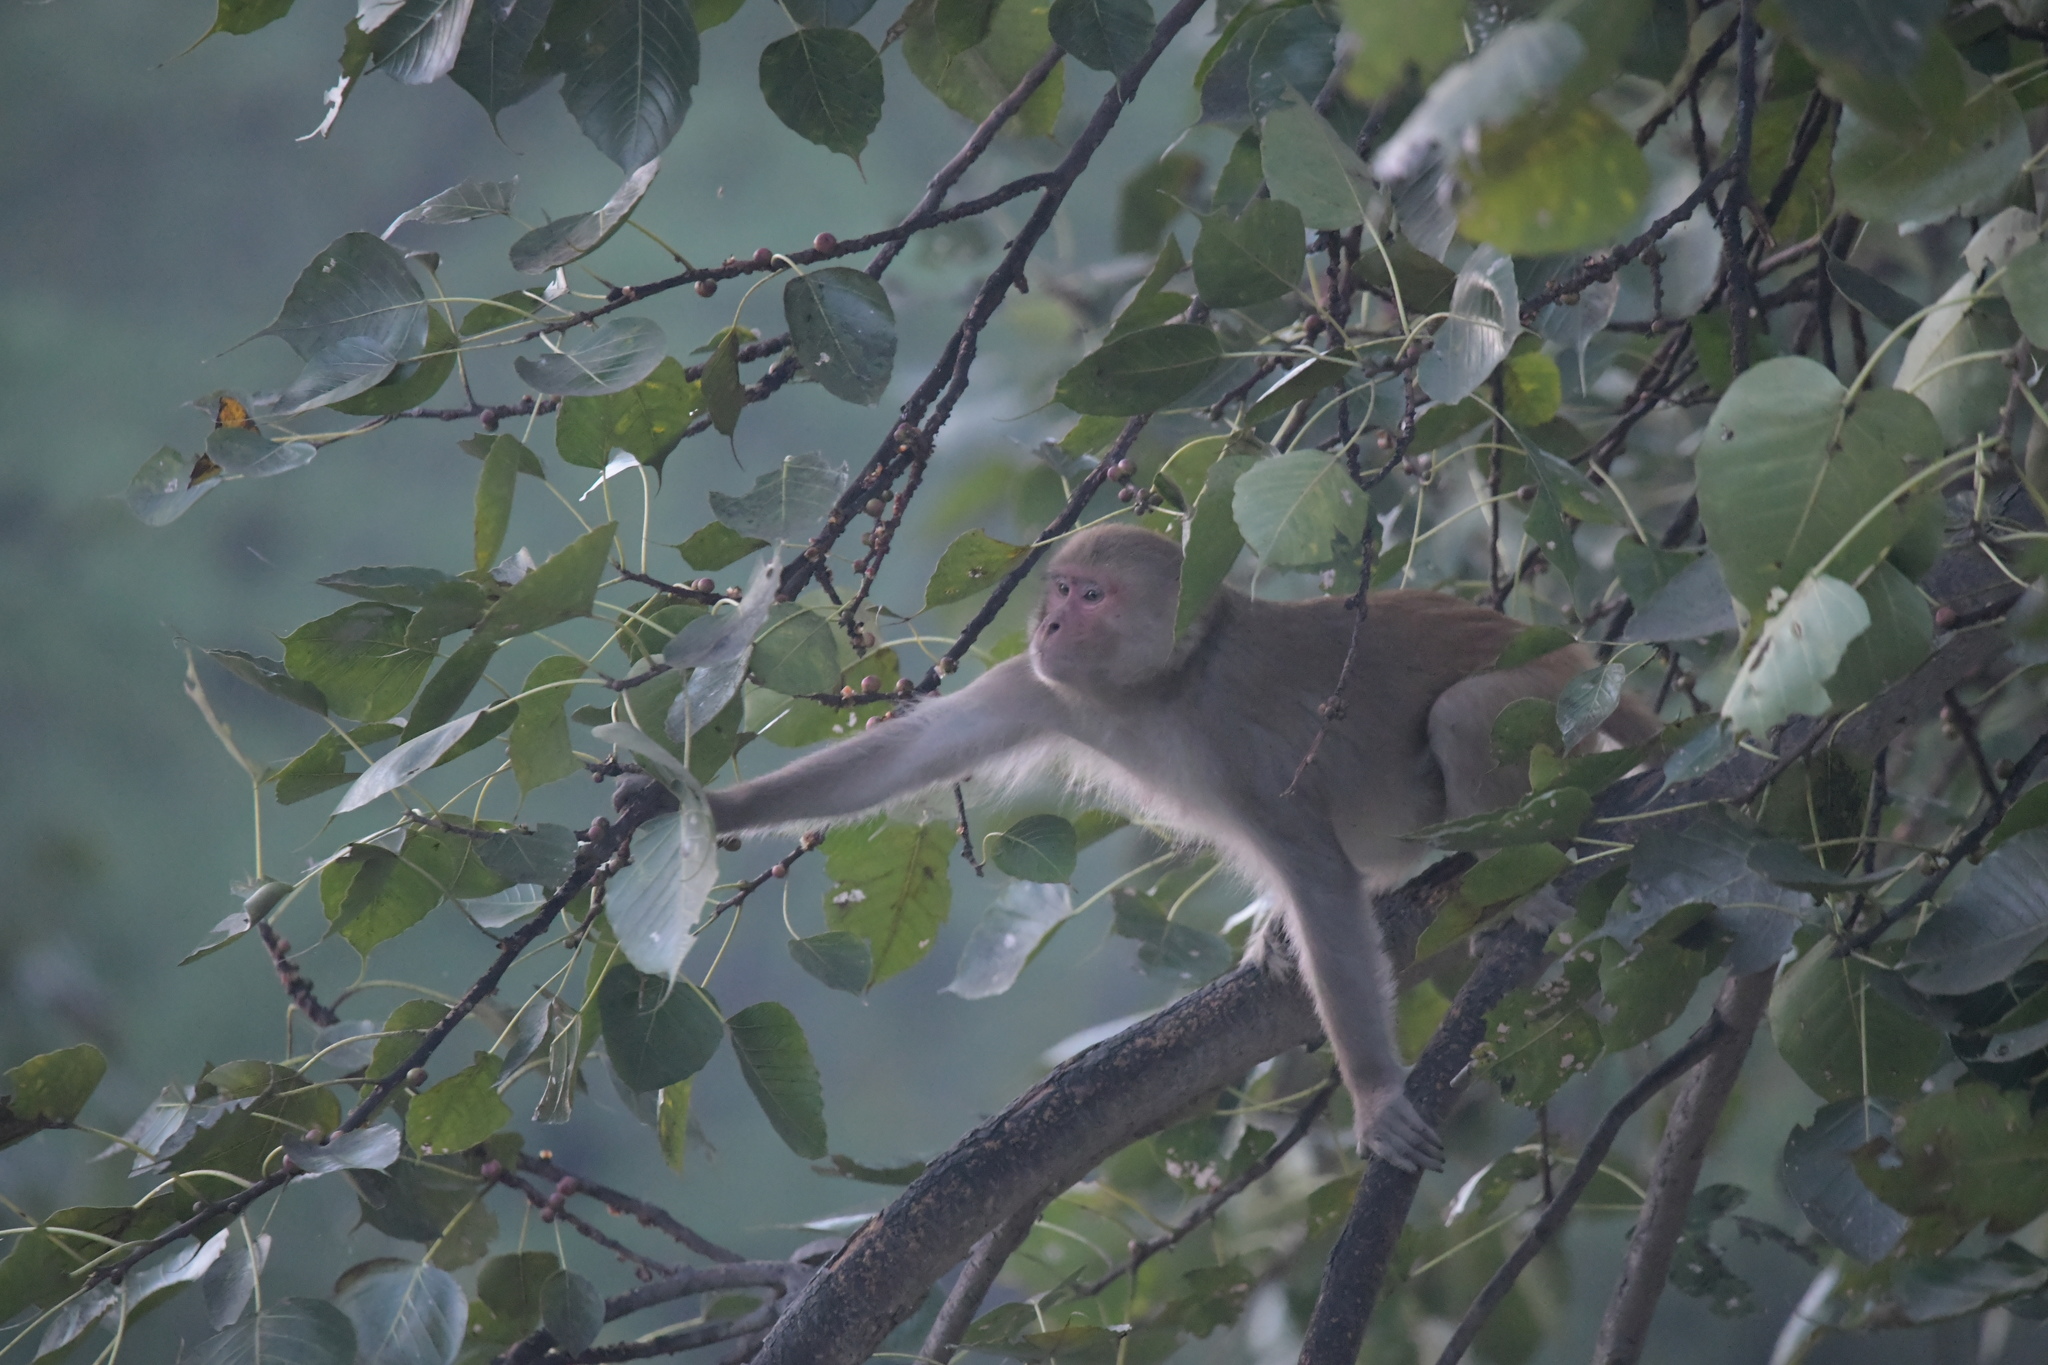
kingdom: Animalia
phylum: Chordata
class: Mammalia
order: Primates
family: Cercopithecidae
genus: Macaca
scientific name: Macaca mulatta
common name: Rhesus monkey
